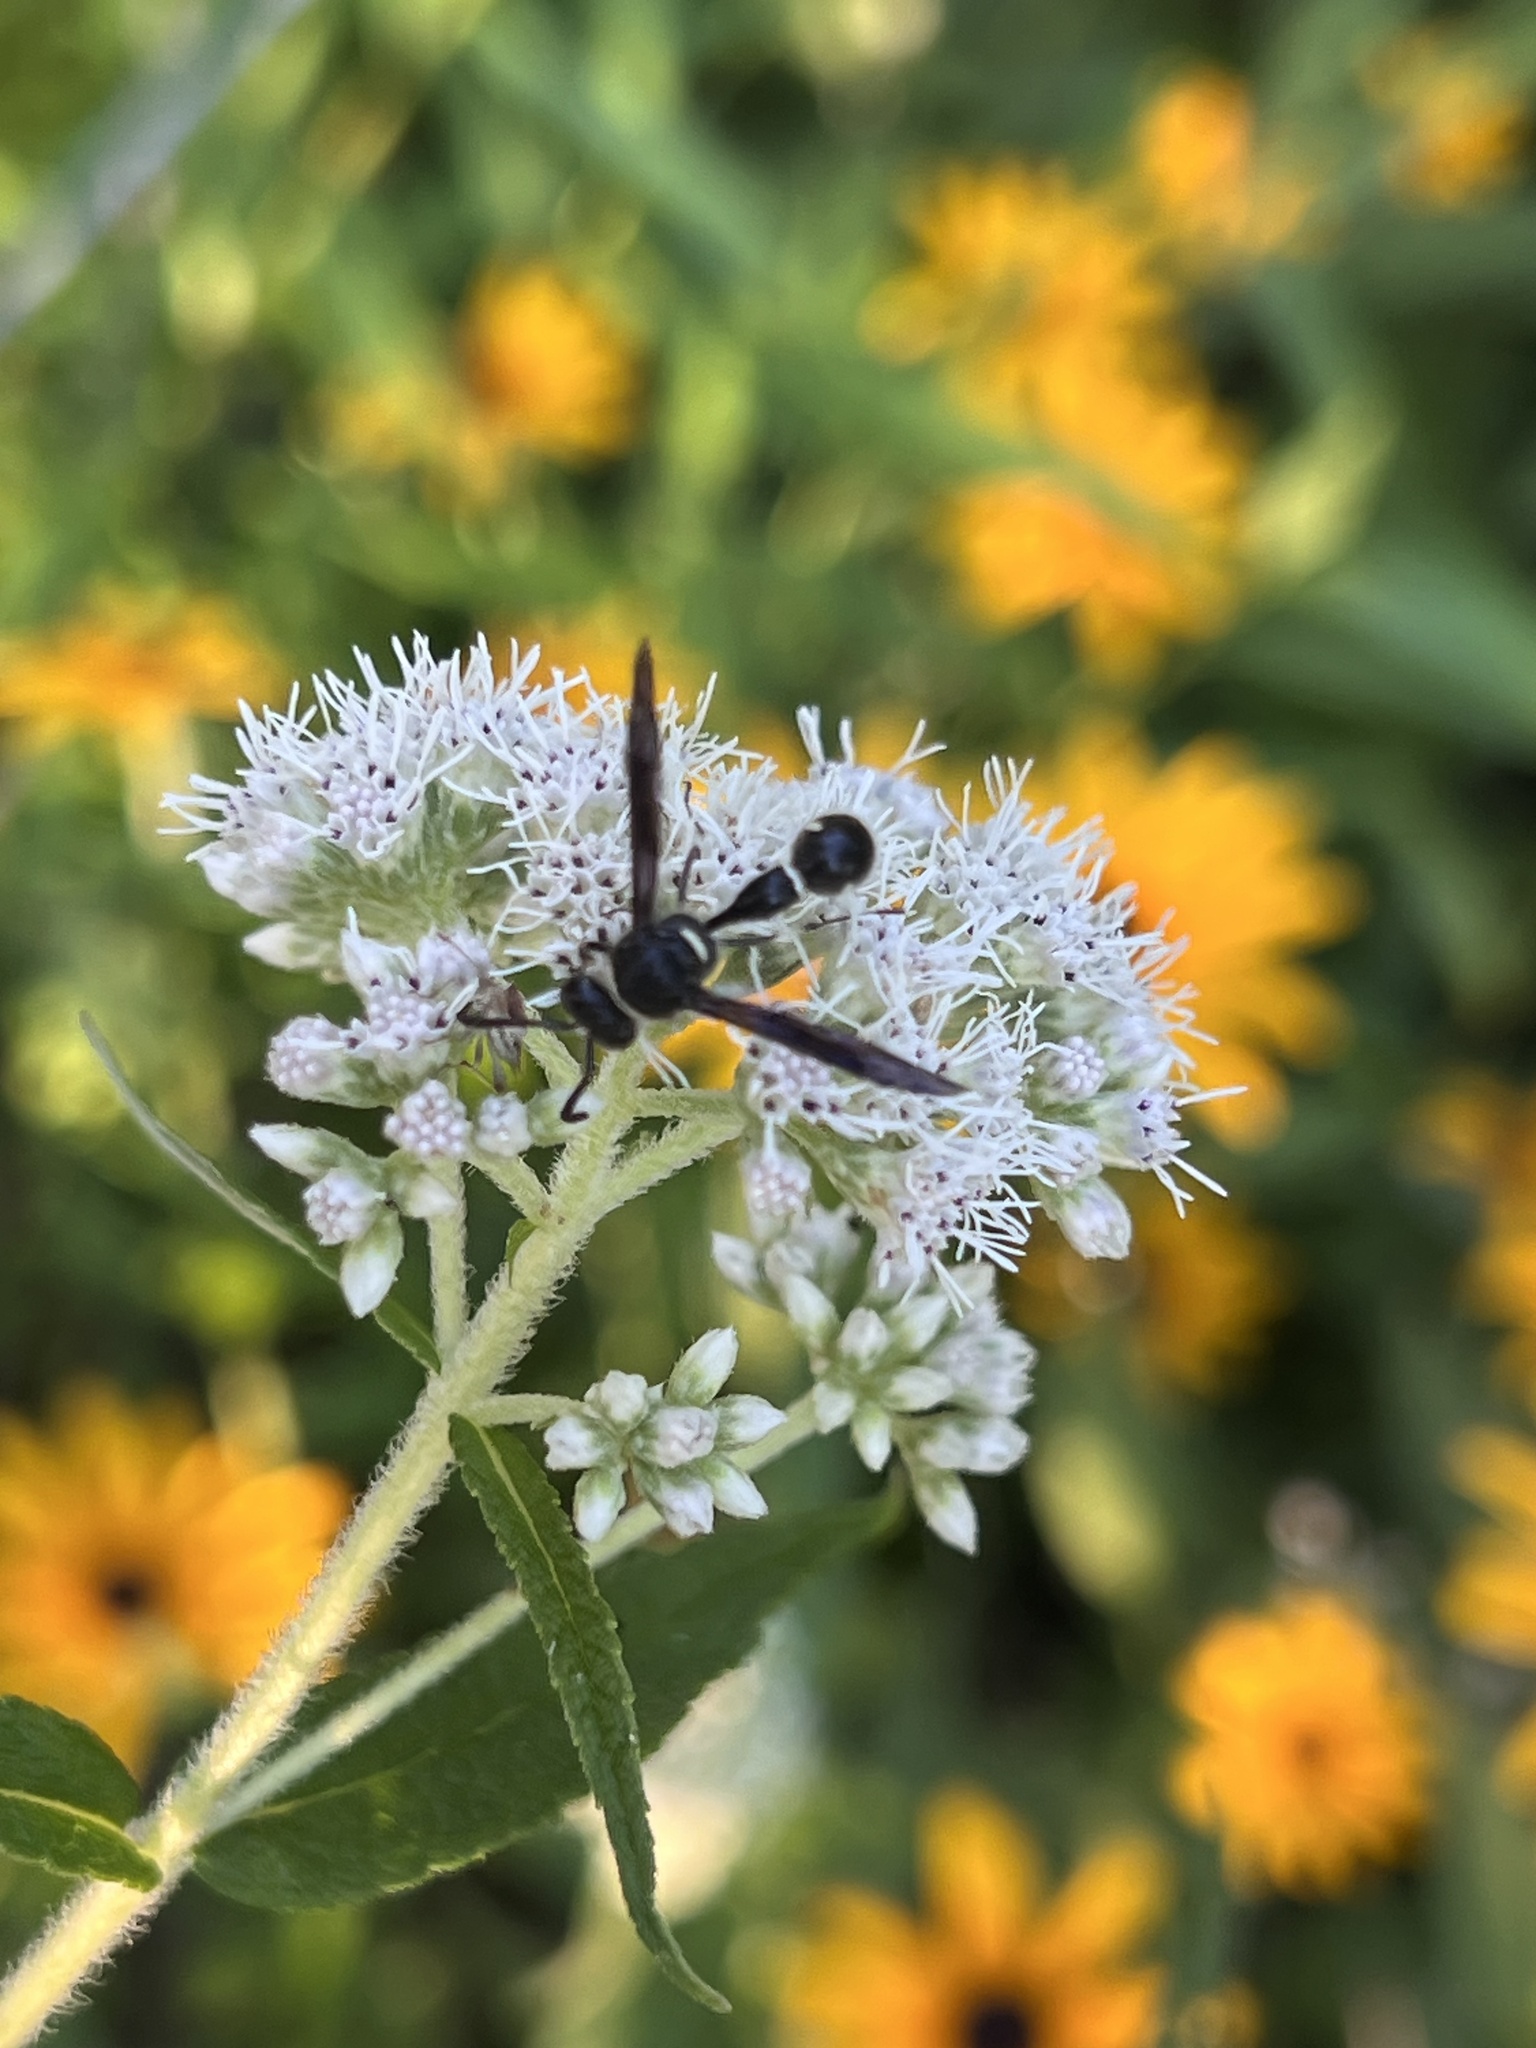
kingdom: Animalia
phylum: Arthropoda
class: Insecta
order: Hymenoptera
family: Vespidae
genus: Eumenes
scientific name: Eumenes fraternus
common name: Fraternal potter wasp
